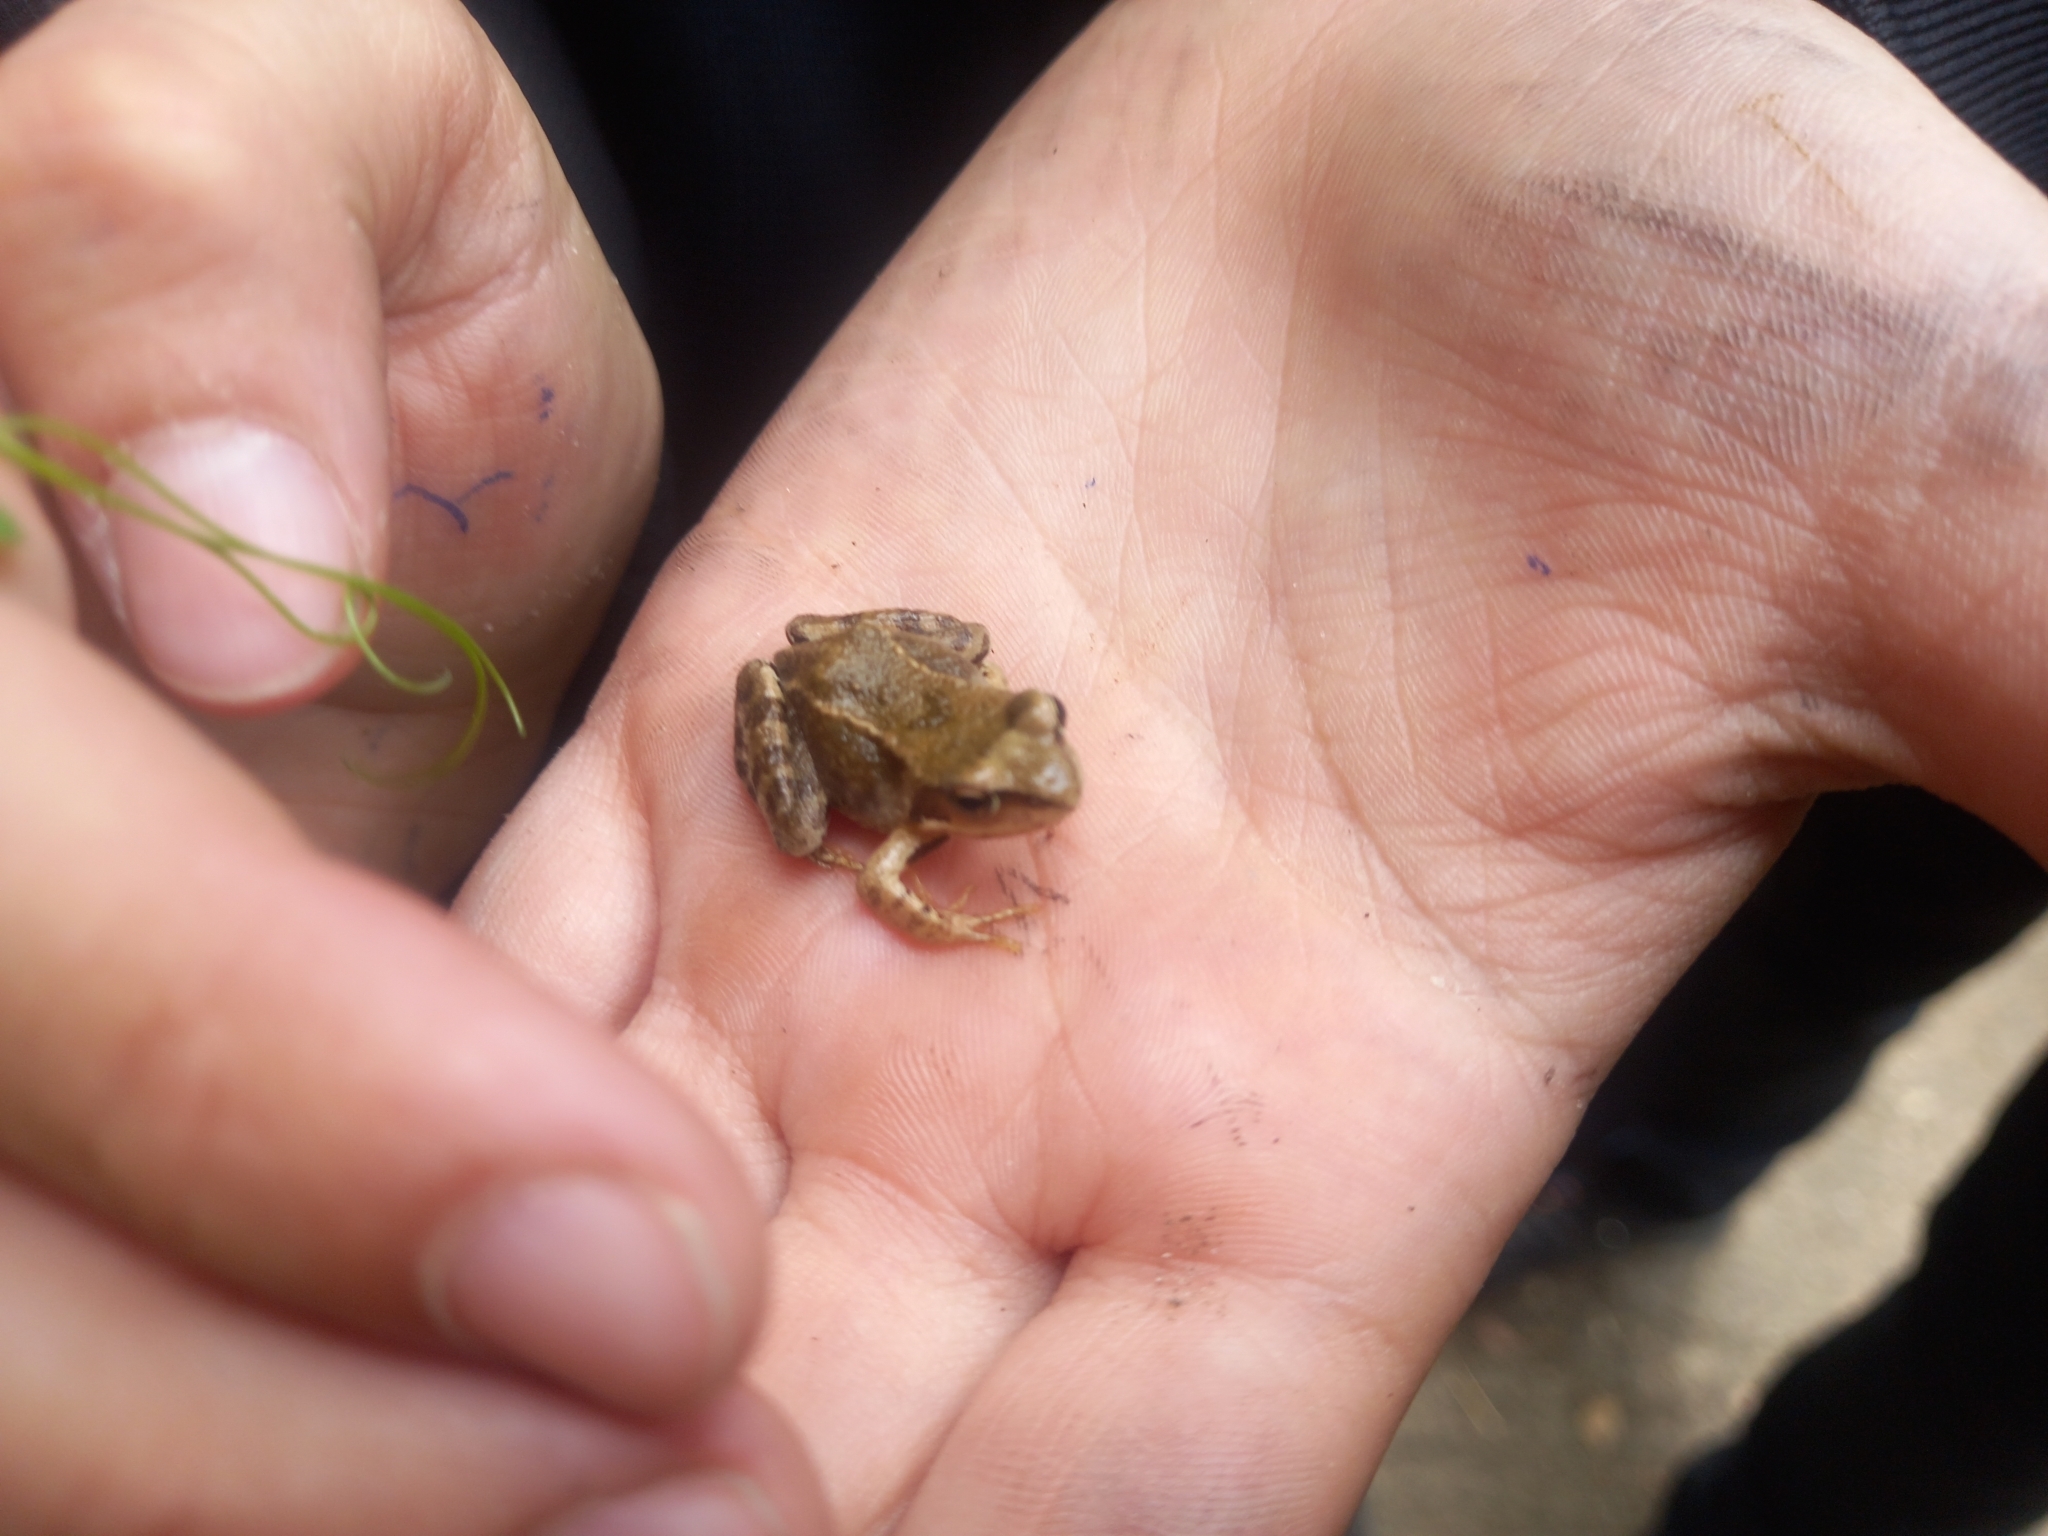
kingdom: Animalia
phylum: Chordata
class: Amphibia
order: Anura
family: Ranidae
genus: Rana
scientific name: Rana temporaria
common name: Common frog
